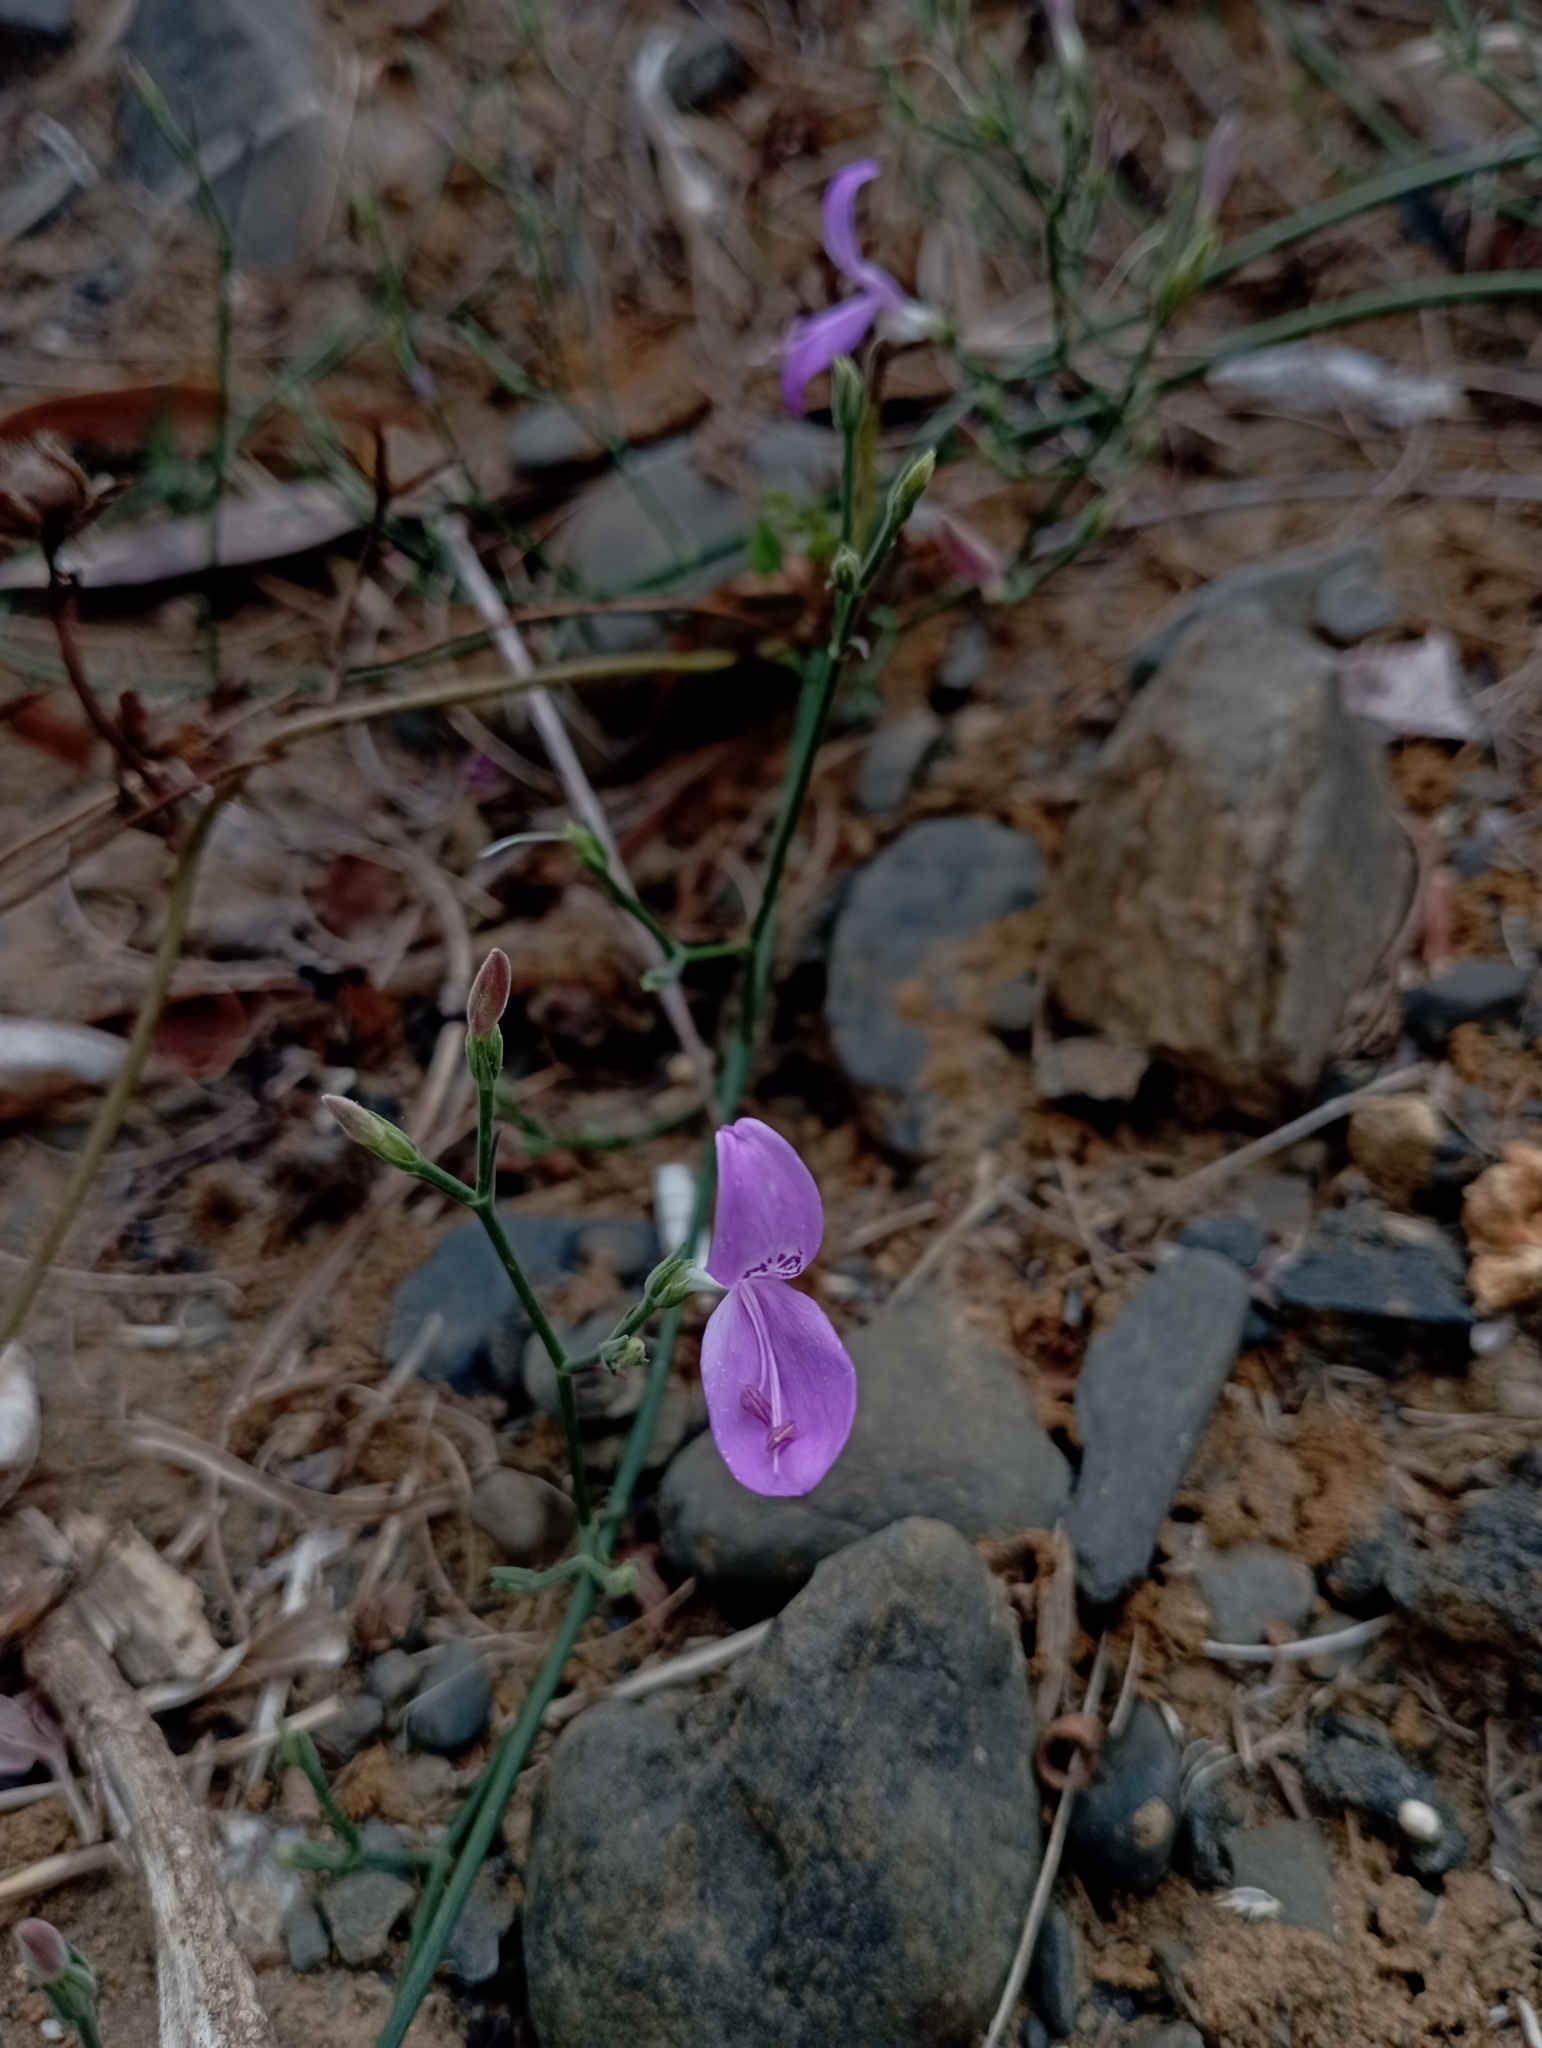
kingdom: Plantae
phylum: Tracheophyta
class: Magnoliopsida
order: Lamiales
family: Acanthaceae
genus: Hypoestes
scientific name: Hypoestes cumingiana
